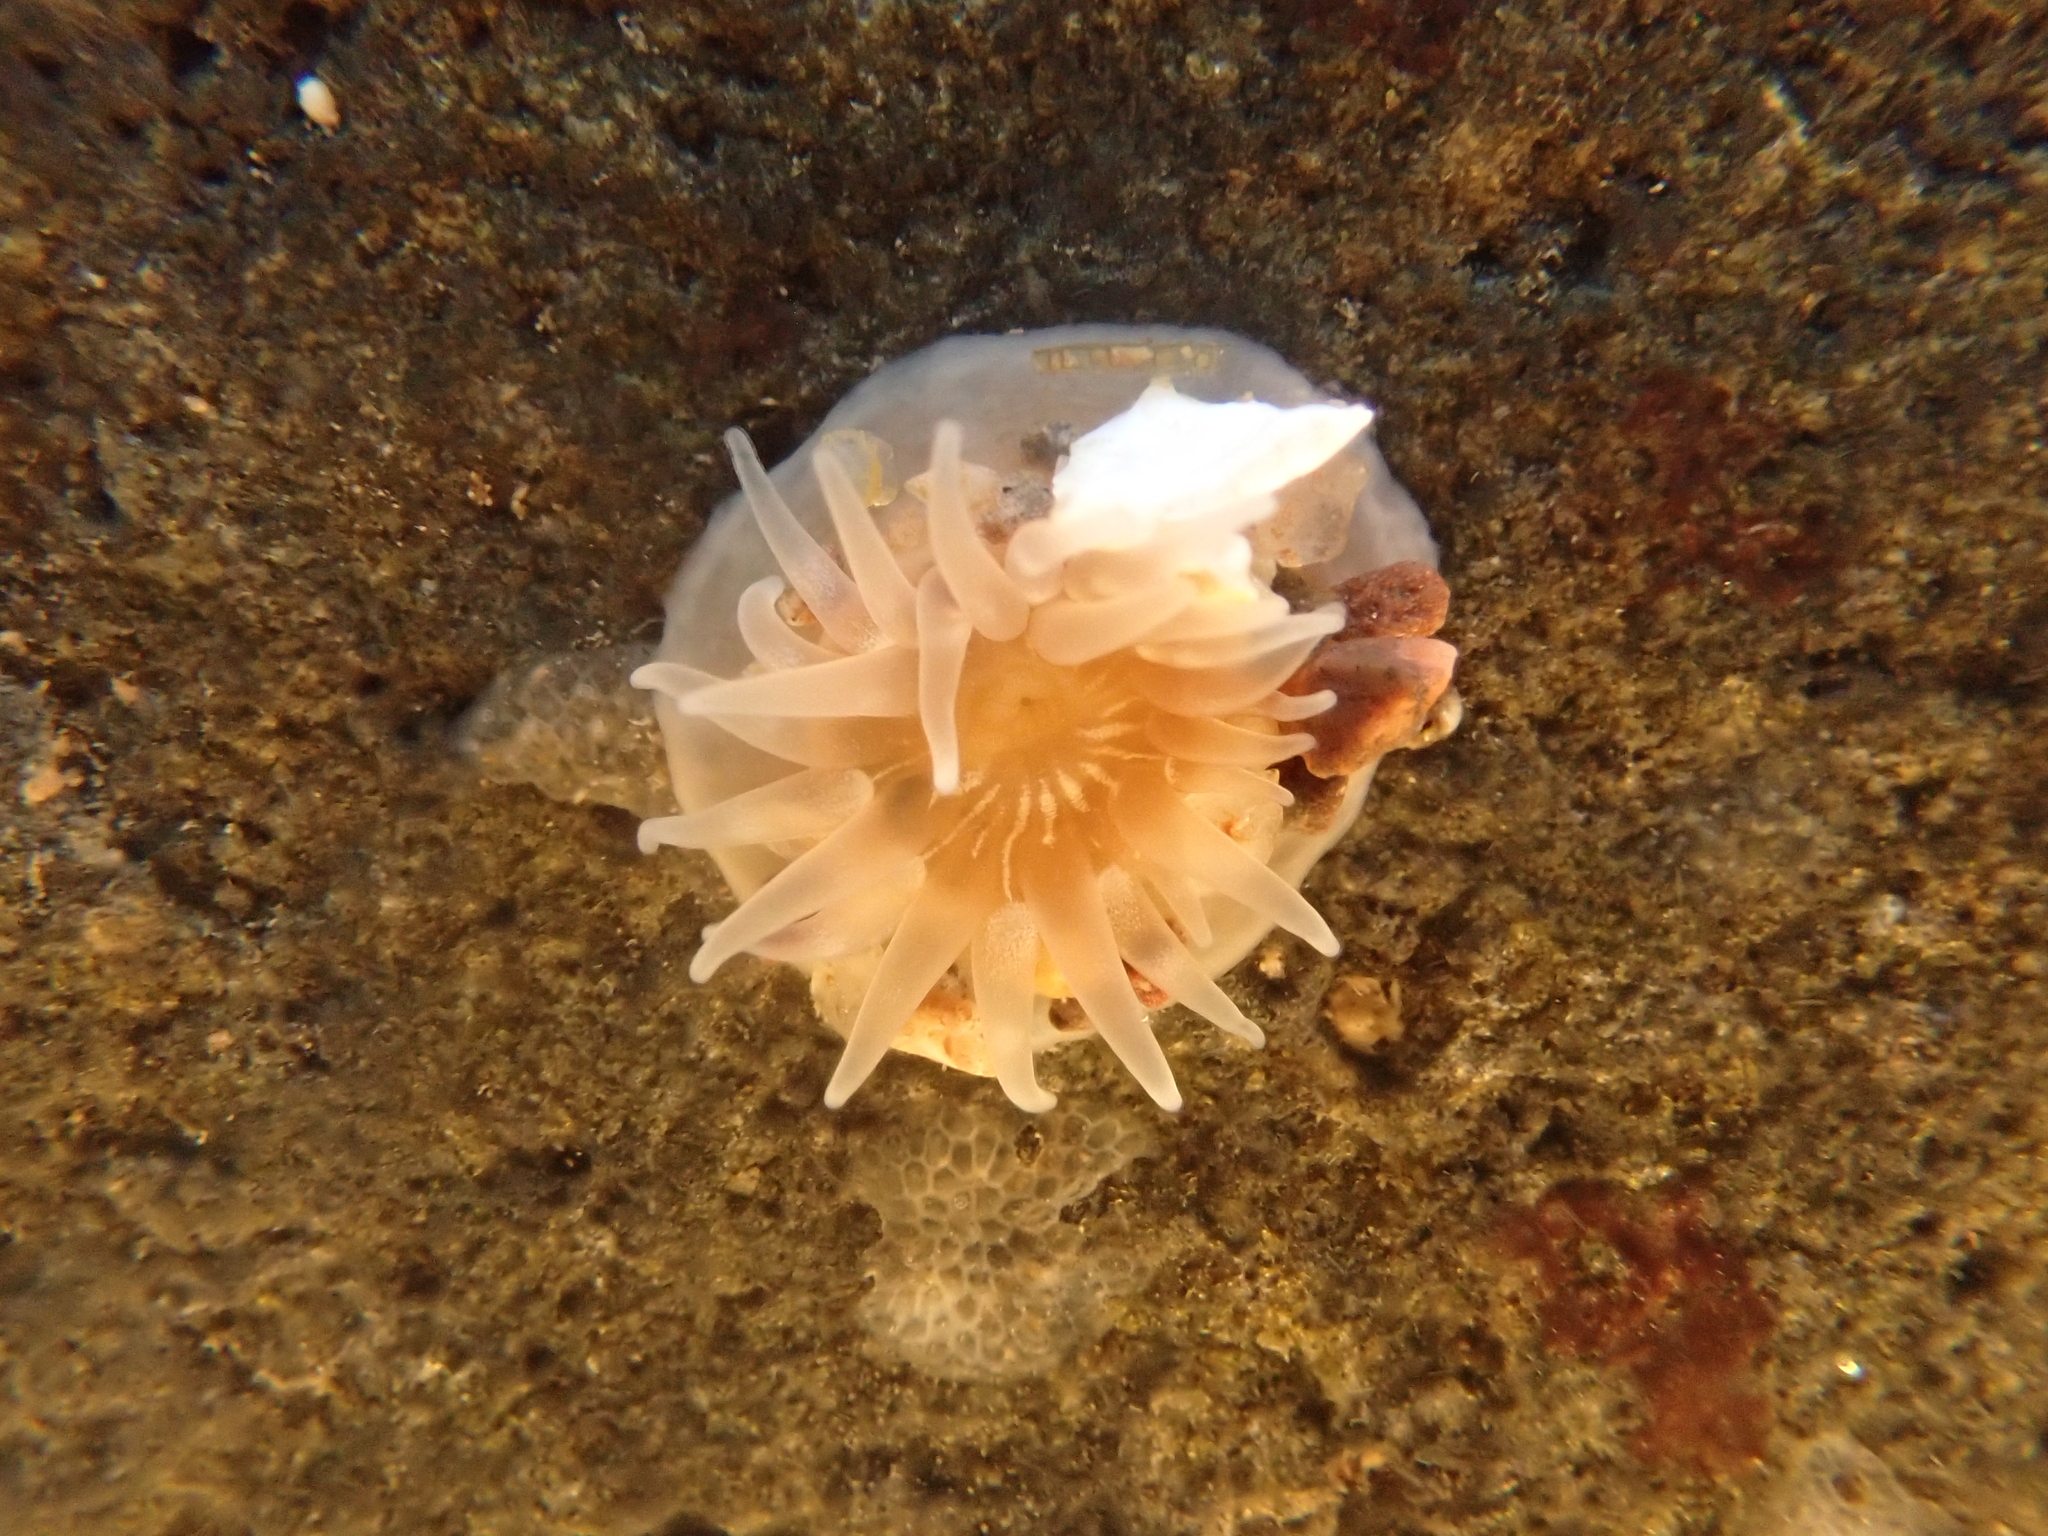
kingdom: Animalia
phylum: Cnidaria
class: Anthozoa
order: Actiniaria
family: Actiniidae
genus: Aulactinia
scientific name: Aulactinia stella
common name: Silver-spotted sea anemone
